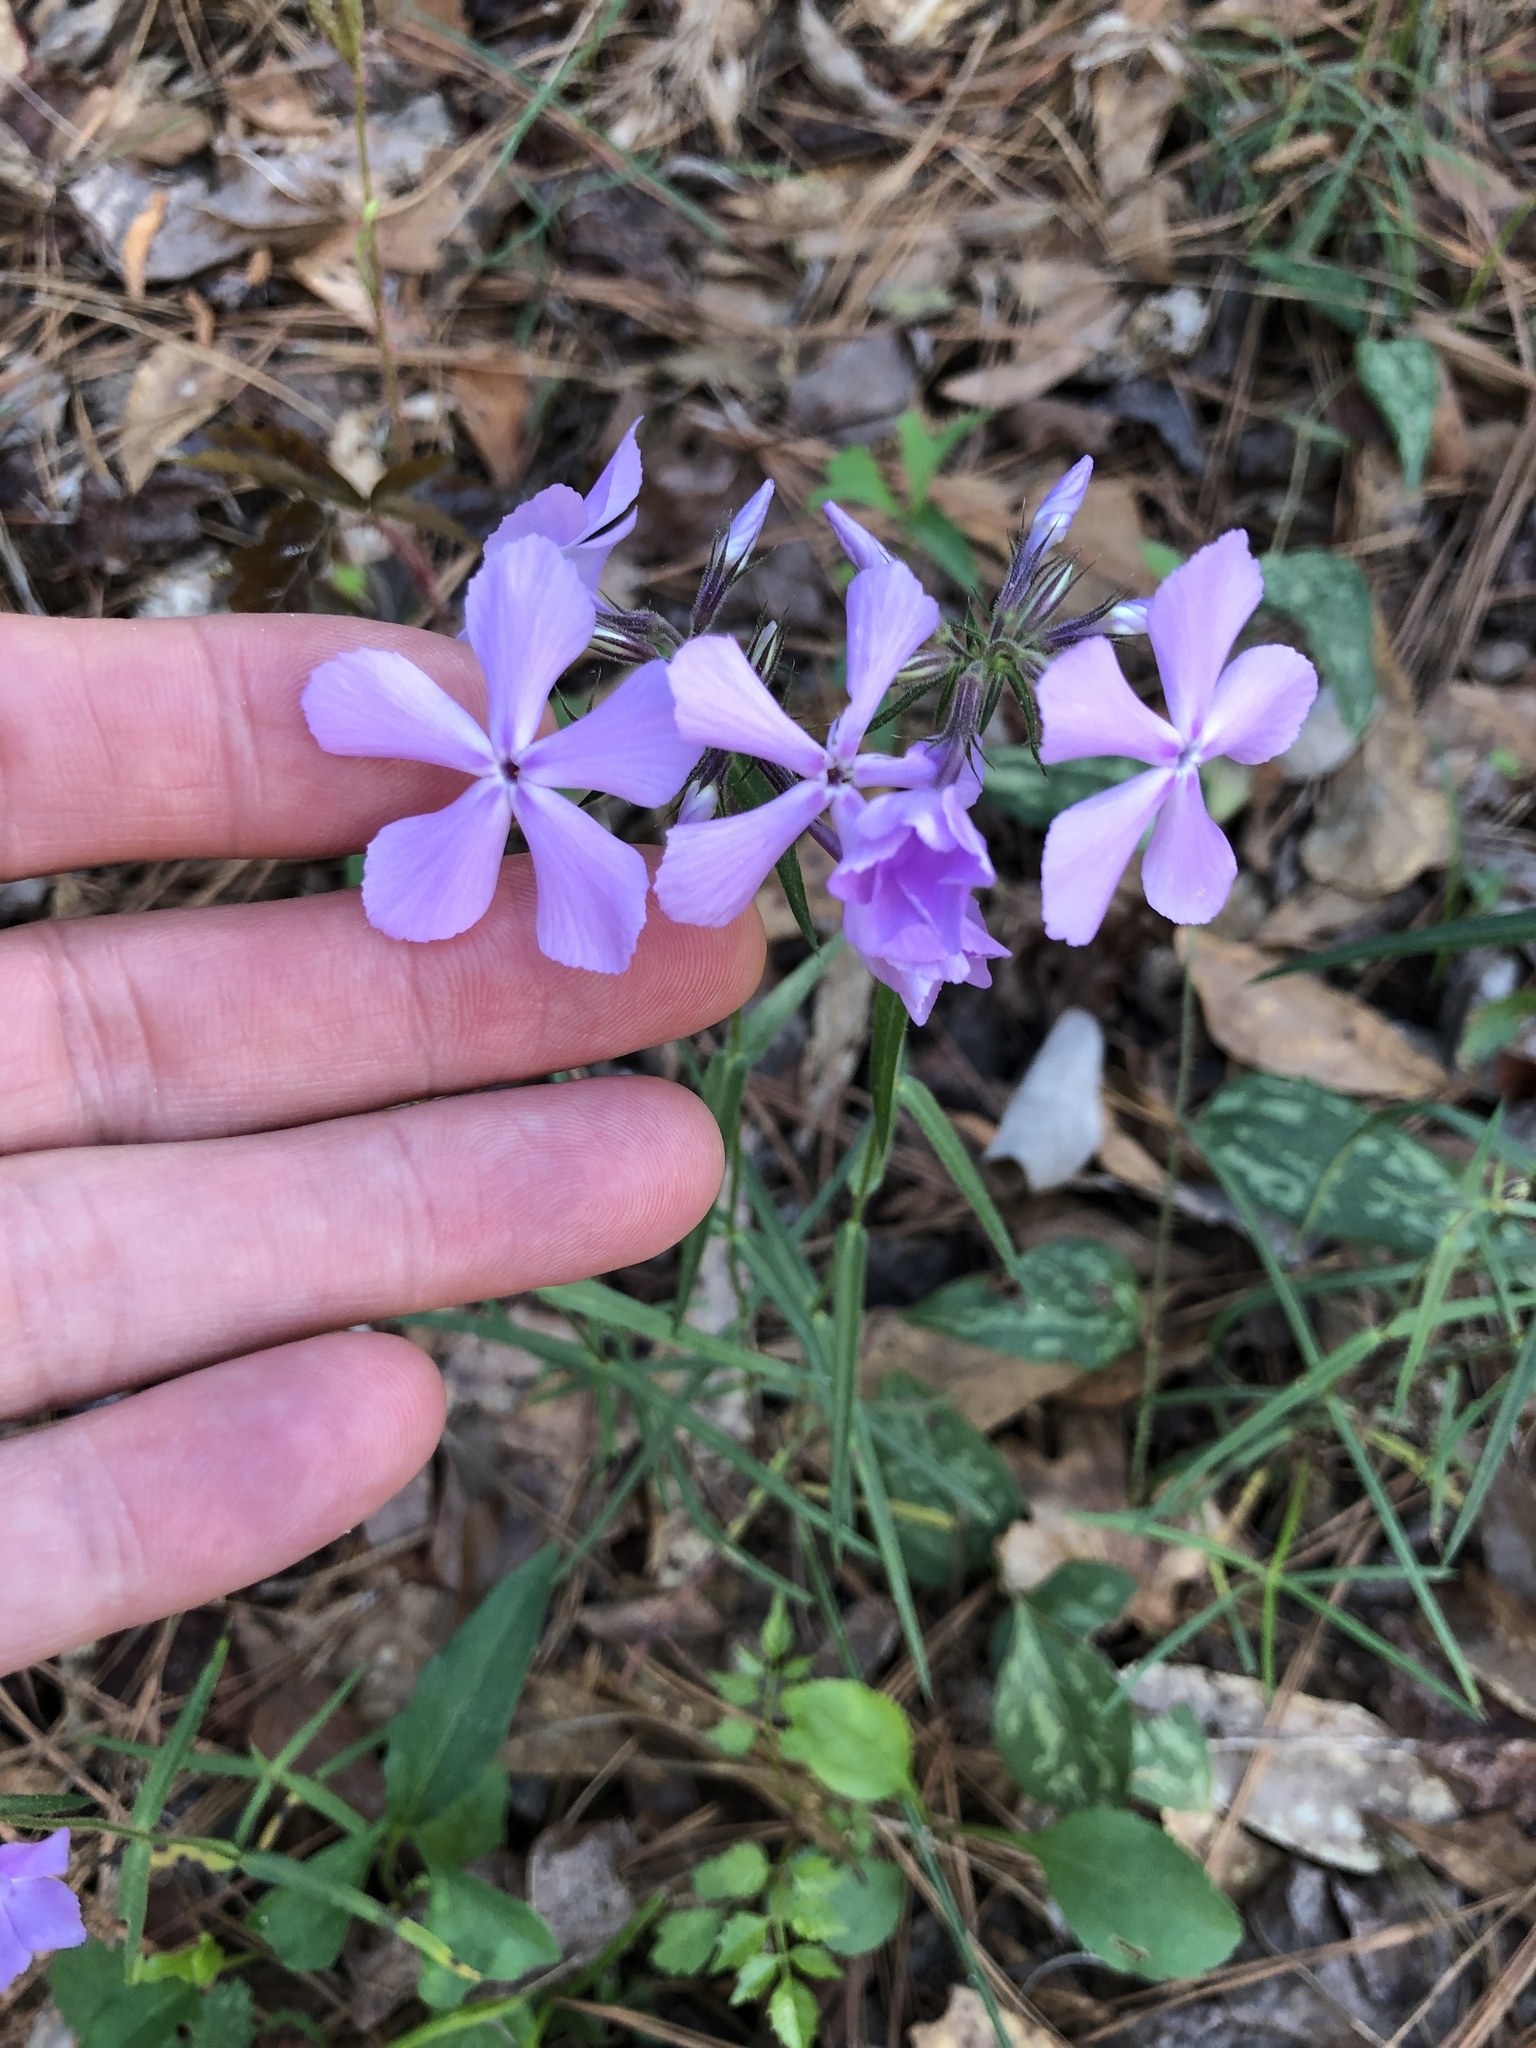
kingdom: Plantae
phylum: Tracheophyta
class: Magnoliopsida
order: Ericales
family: Polemoniaceae
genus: Phlox
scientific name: Phlox pilosa
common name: Prairie phlox
